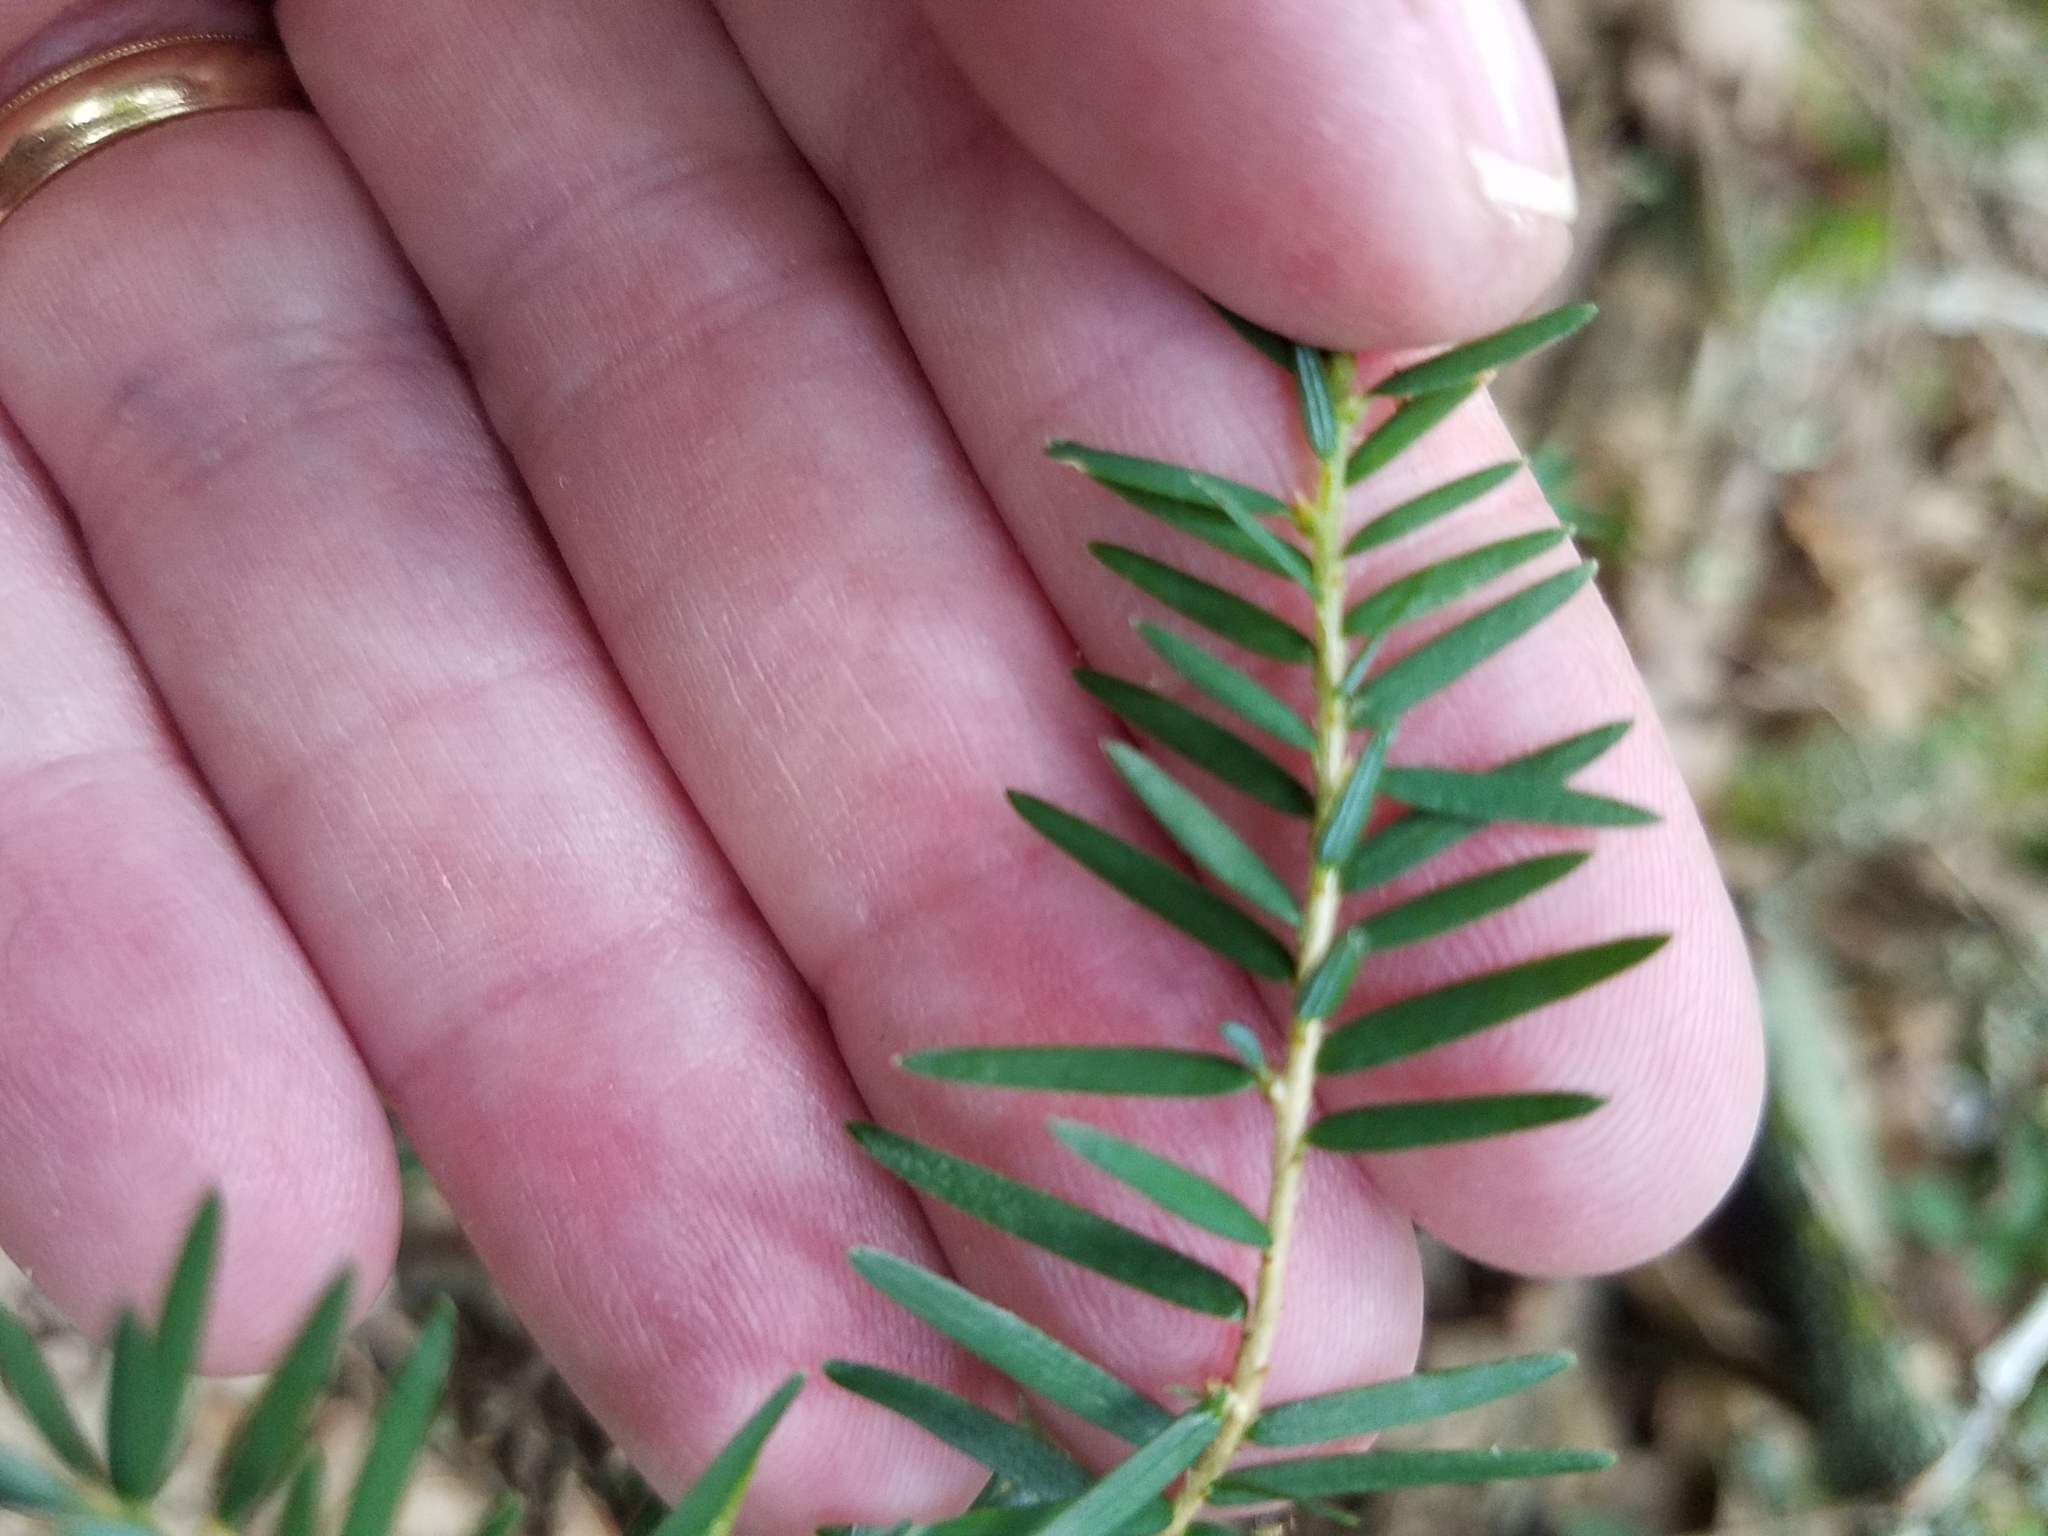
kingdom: Plantae
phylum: Tracheophyta
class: Pinopsida
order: Pinales
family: Pinaceae
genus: Tsuga
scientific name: Tsuga canadensis
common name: Eastern hemlock
